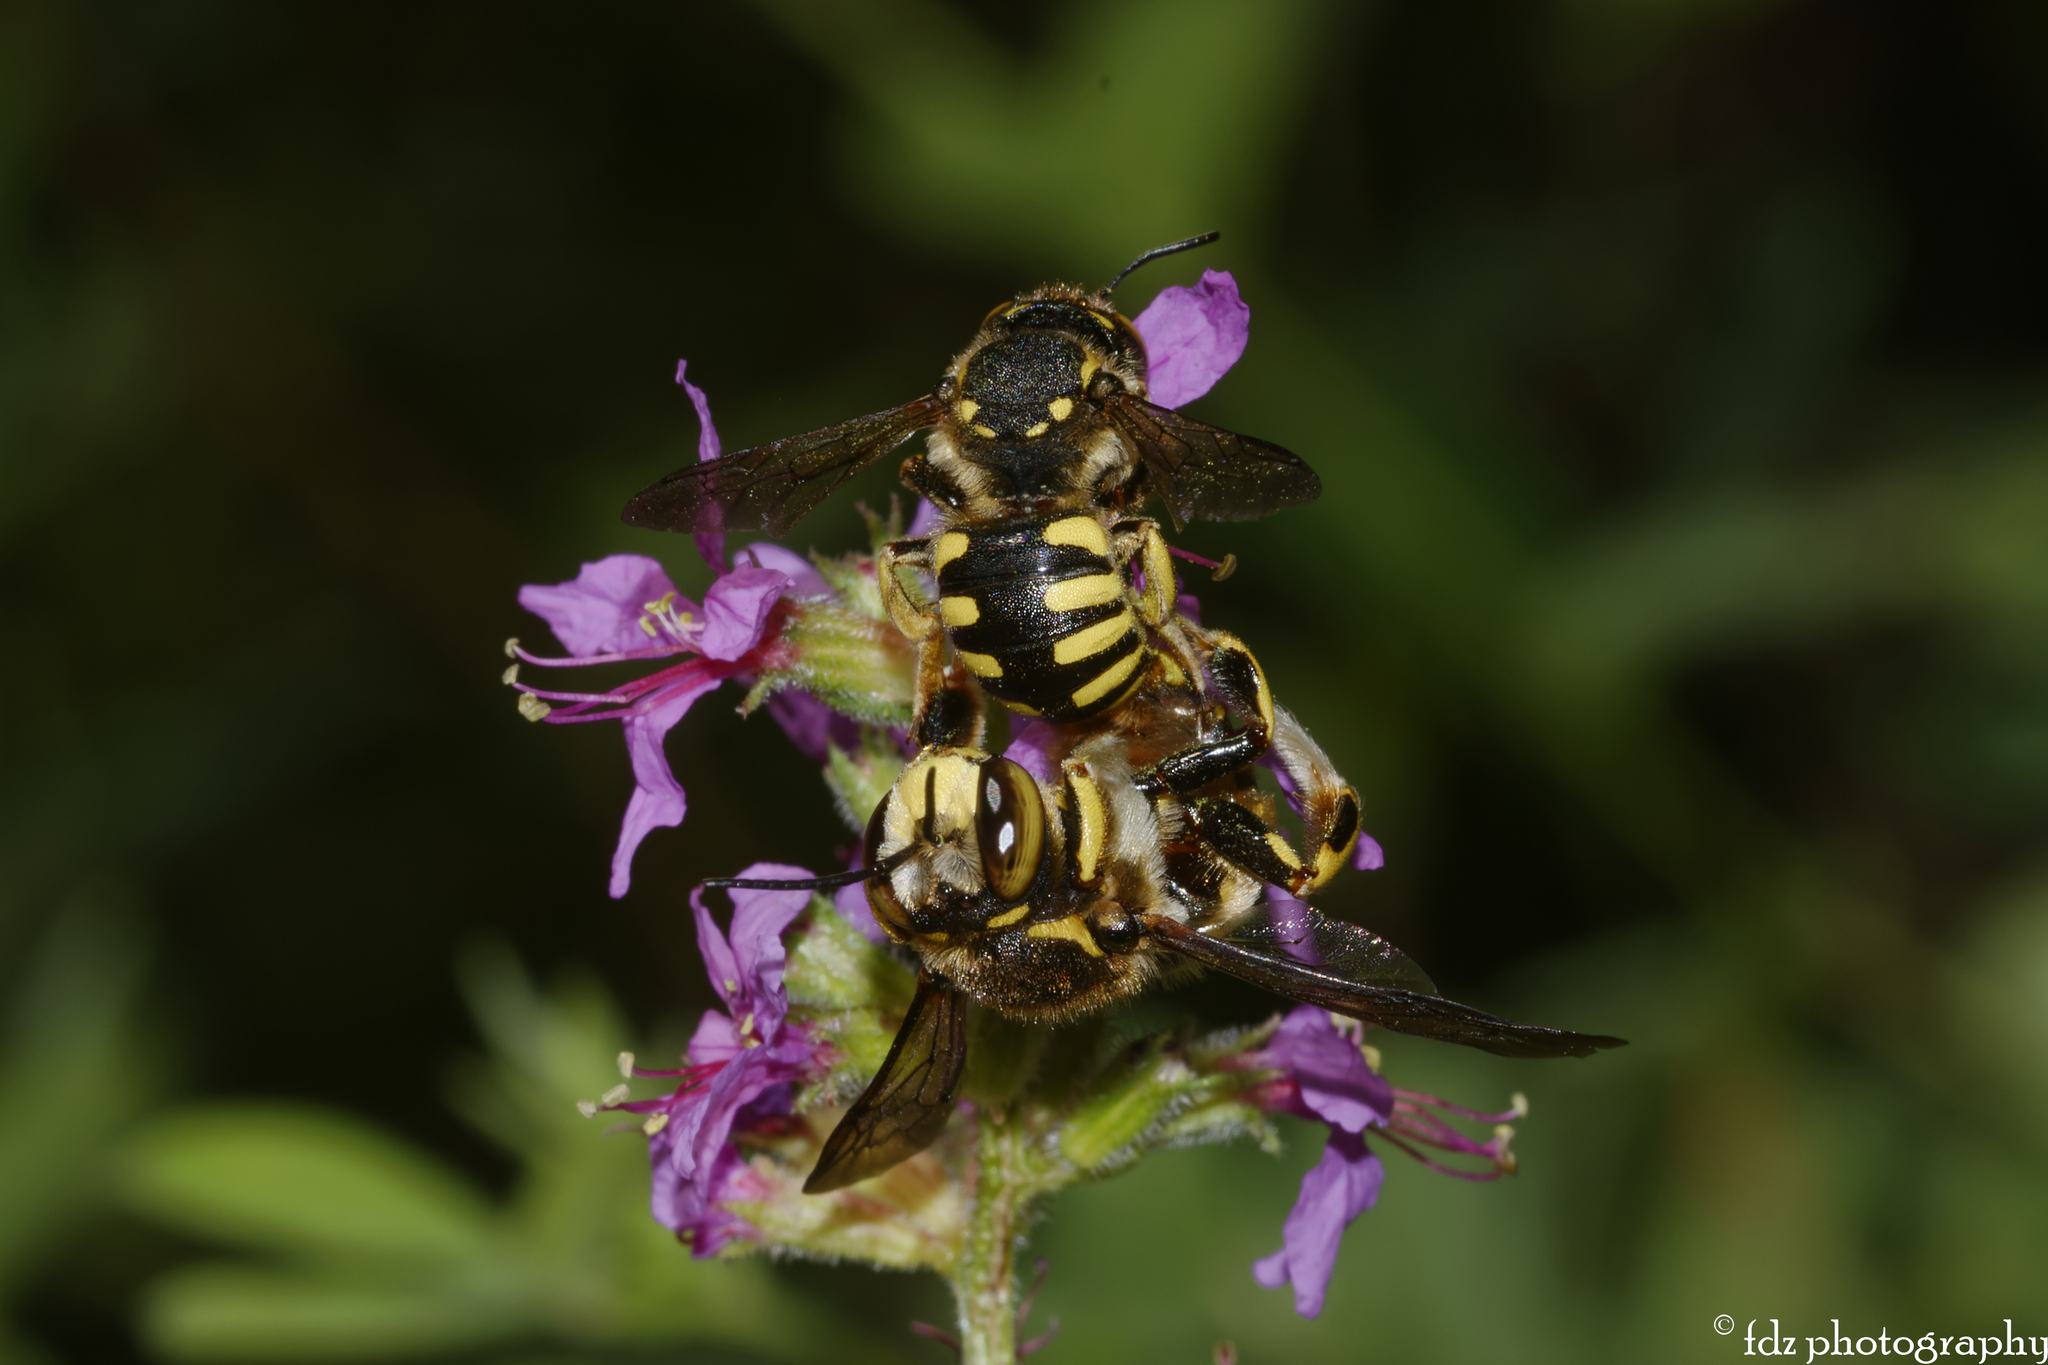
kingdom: Animalia
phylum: Arthropoda
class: Insecta
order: Hymenoptera
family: Megachilidae
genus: Anthidium
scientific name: Anthidium florentinum
